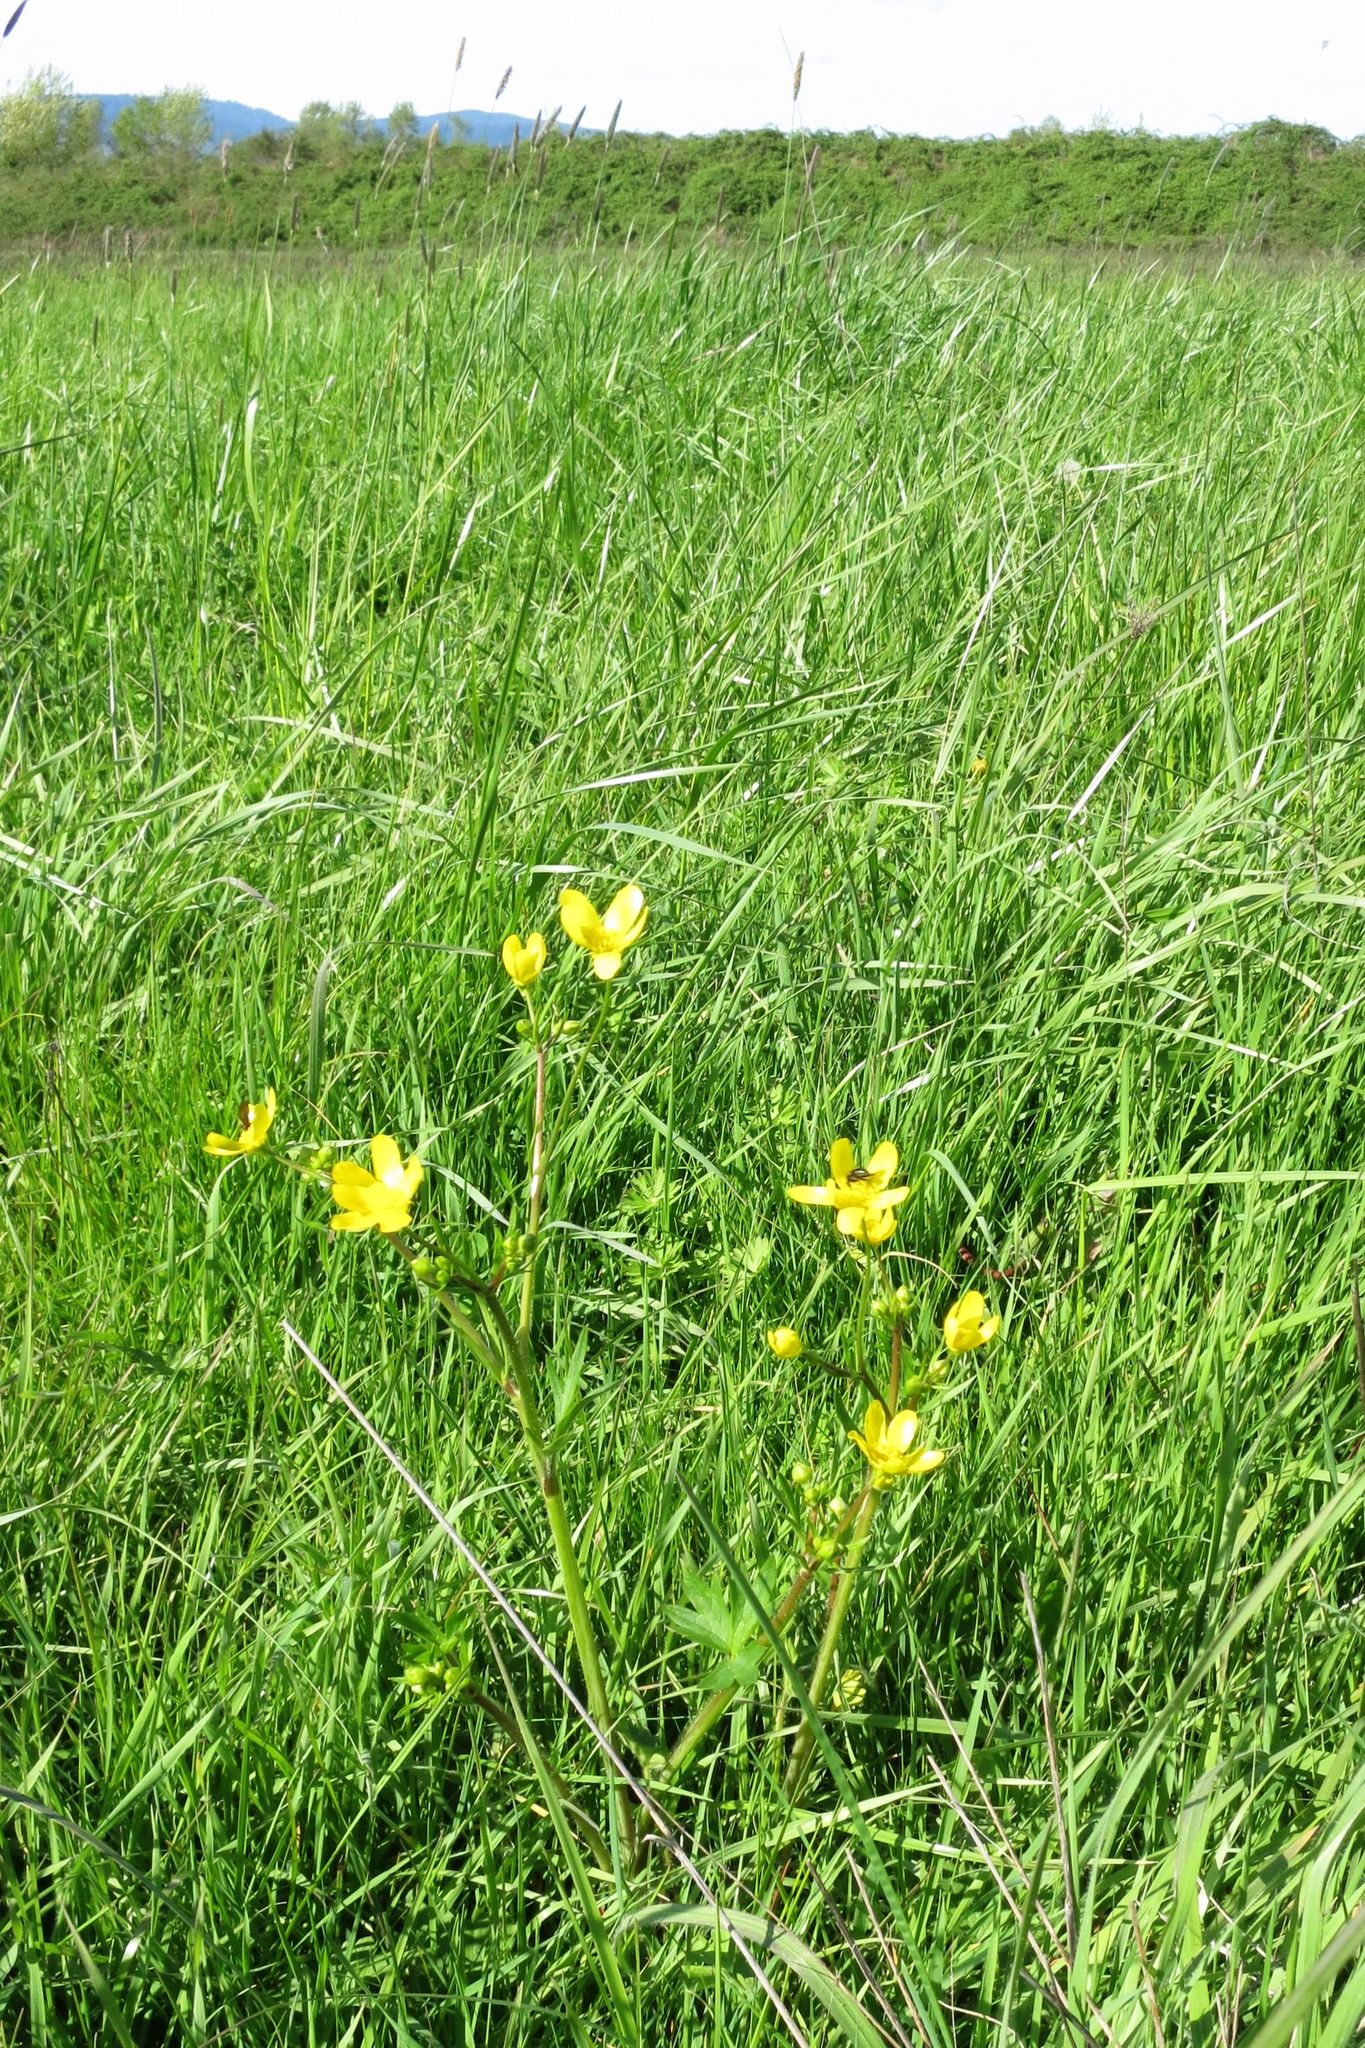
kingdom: Plantae
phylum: Tracheophyta
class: Magnoliopsida
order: Ranunculales
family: Ranunculaceae
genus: Ranunculus
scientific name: Ranunculus occidentalis
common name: Western buttercup
